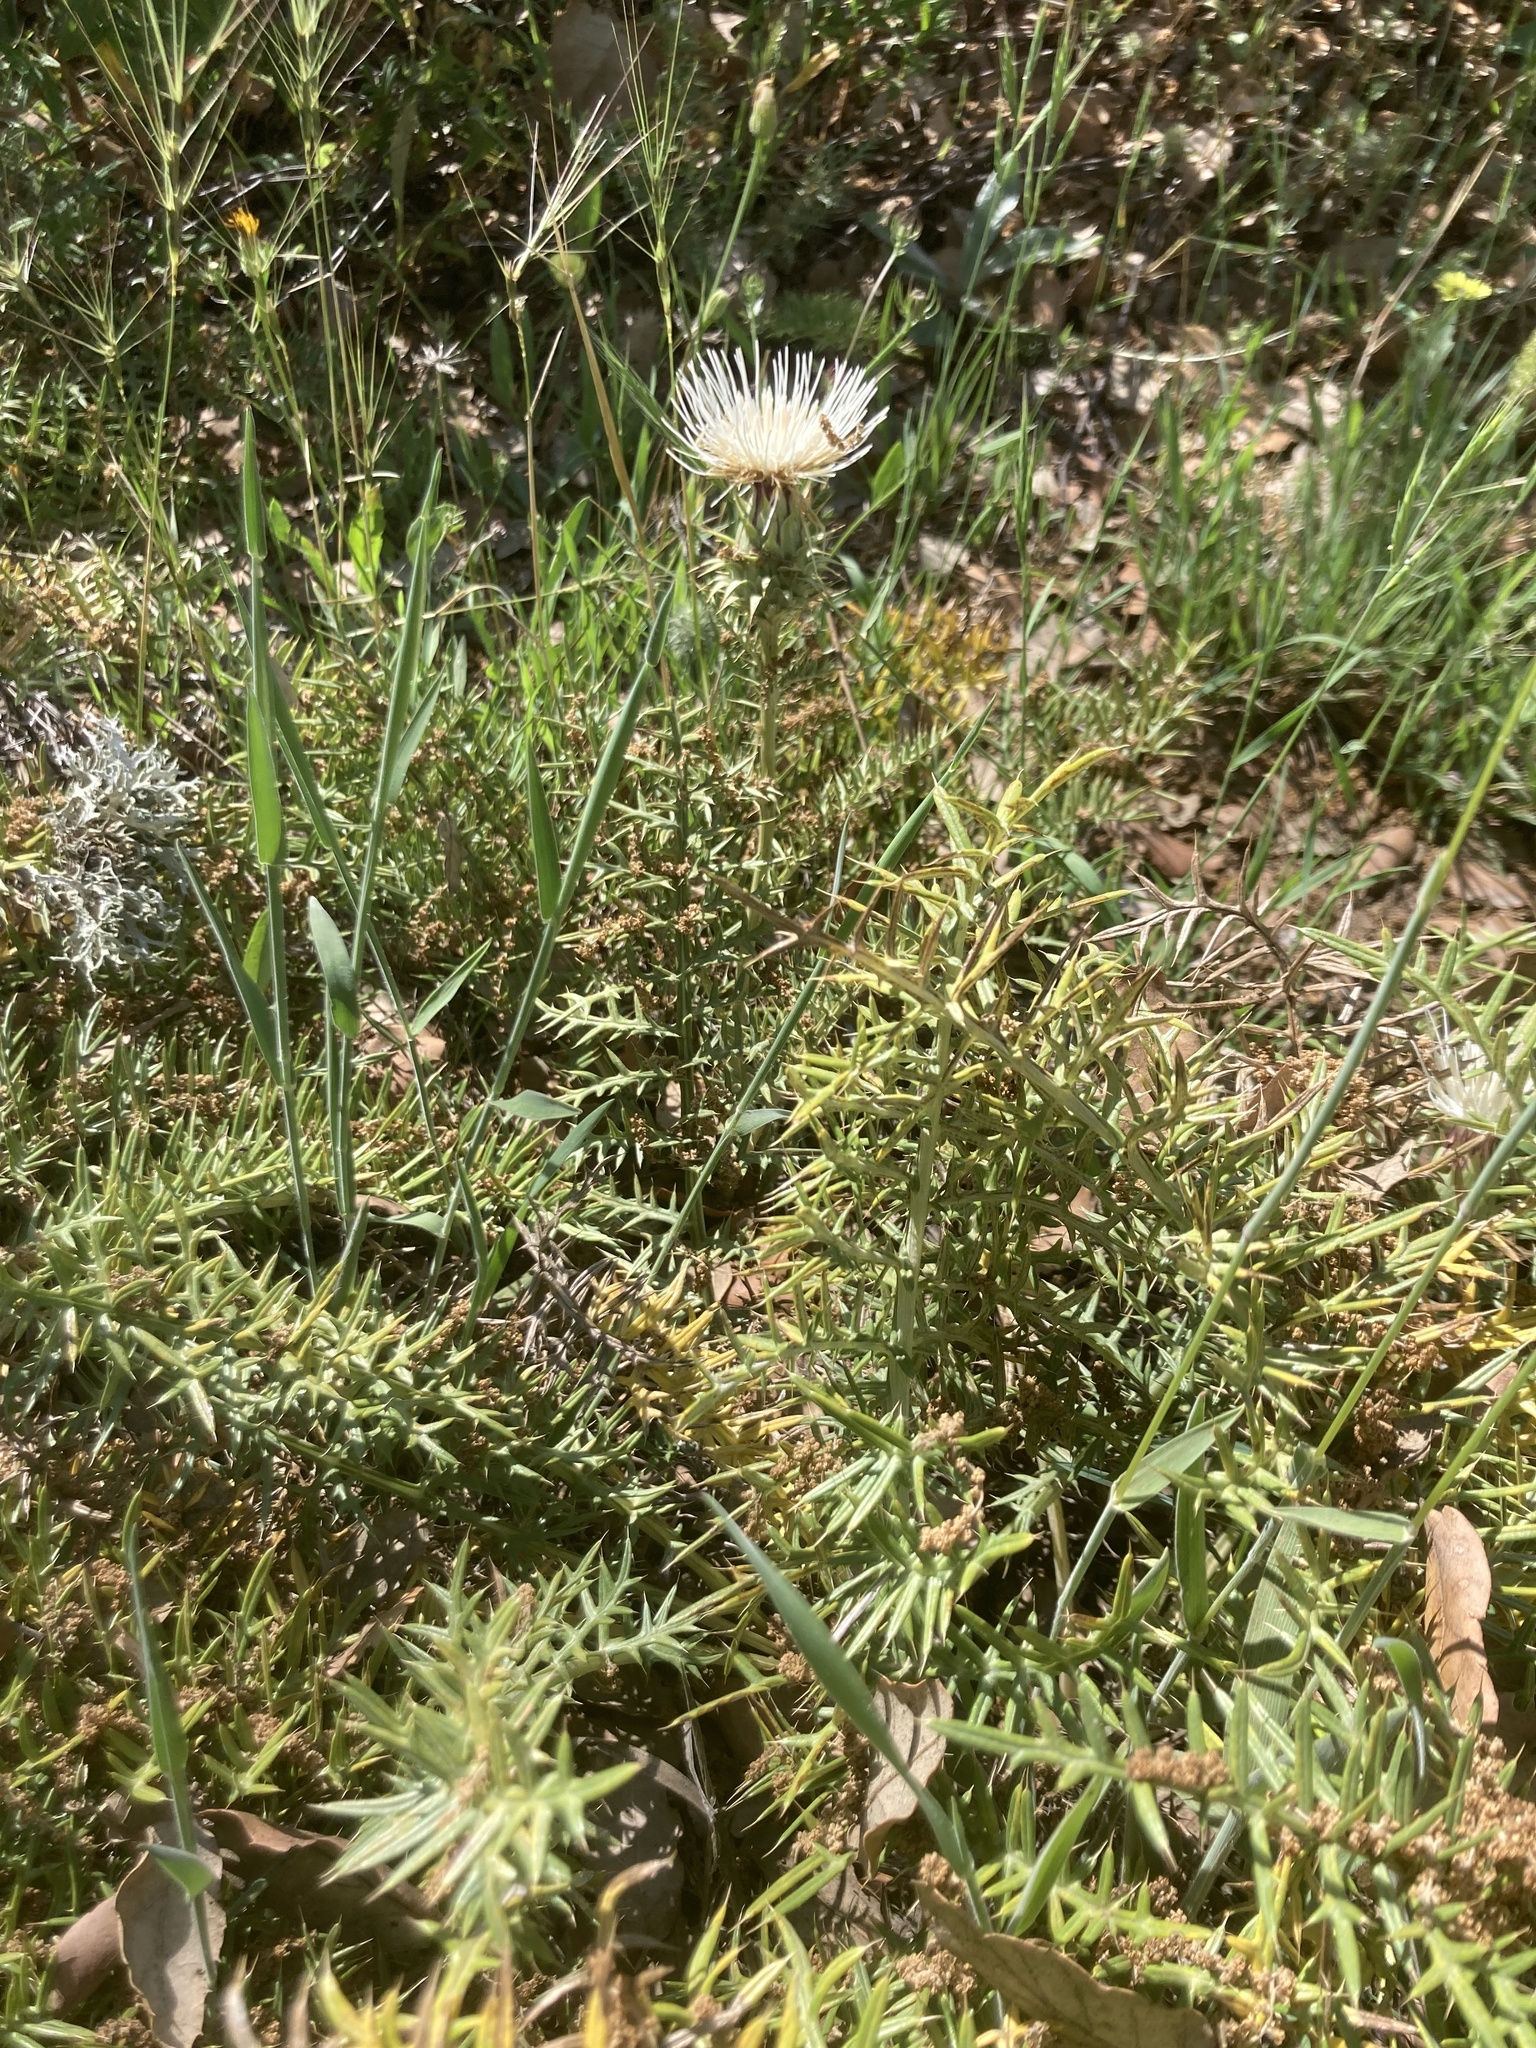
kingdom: Plantae
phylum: Tracheophyta
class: Magnoliopsida
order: Asterales
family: Asteraceae
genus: Cynara
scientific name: Cynara humilis
